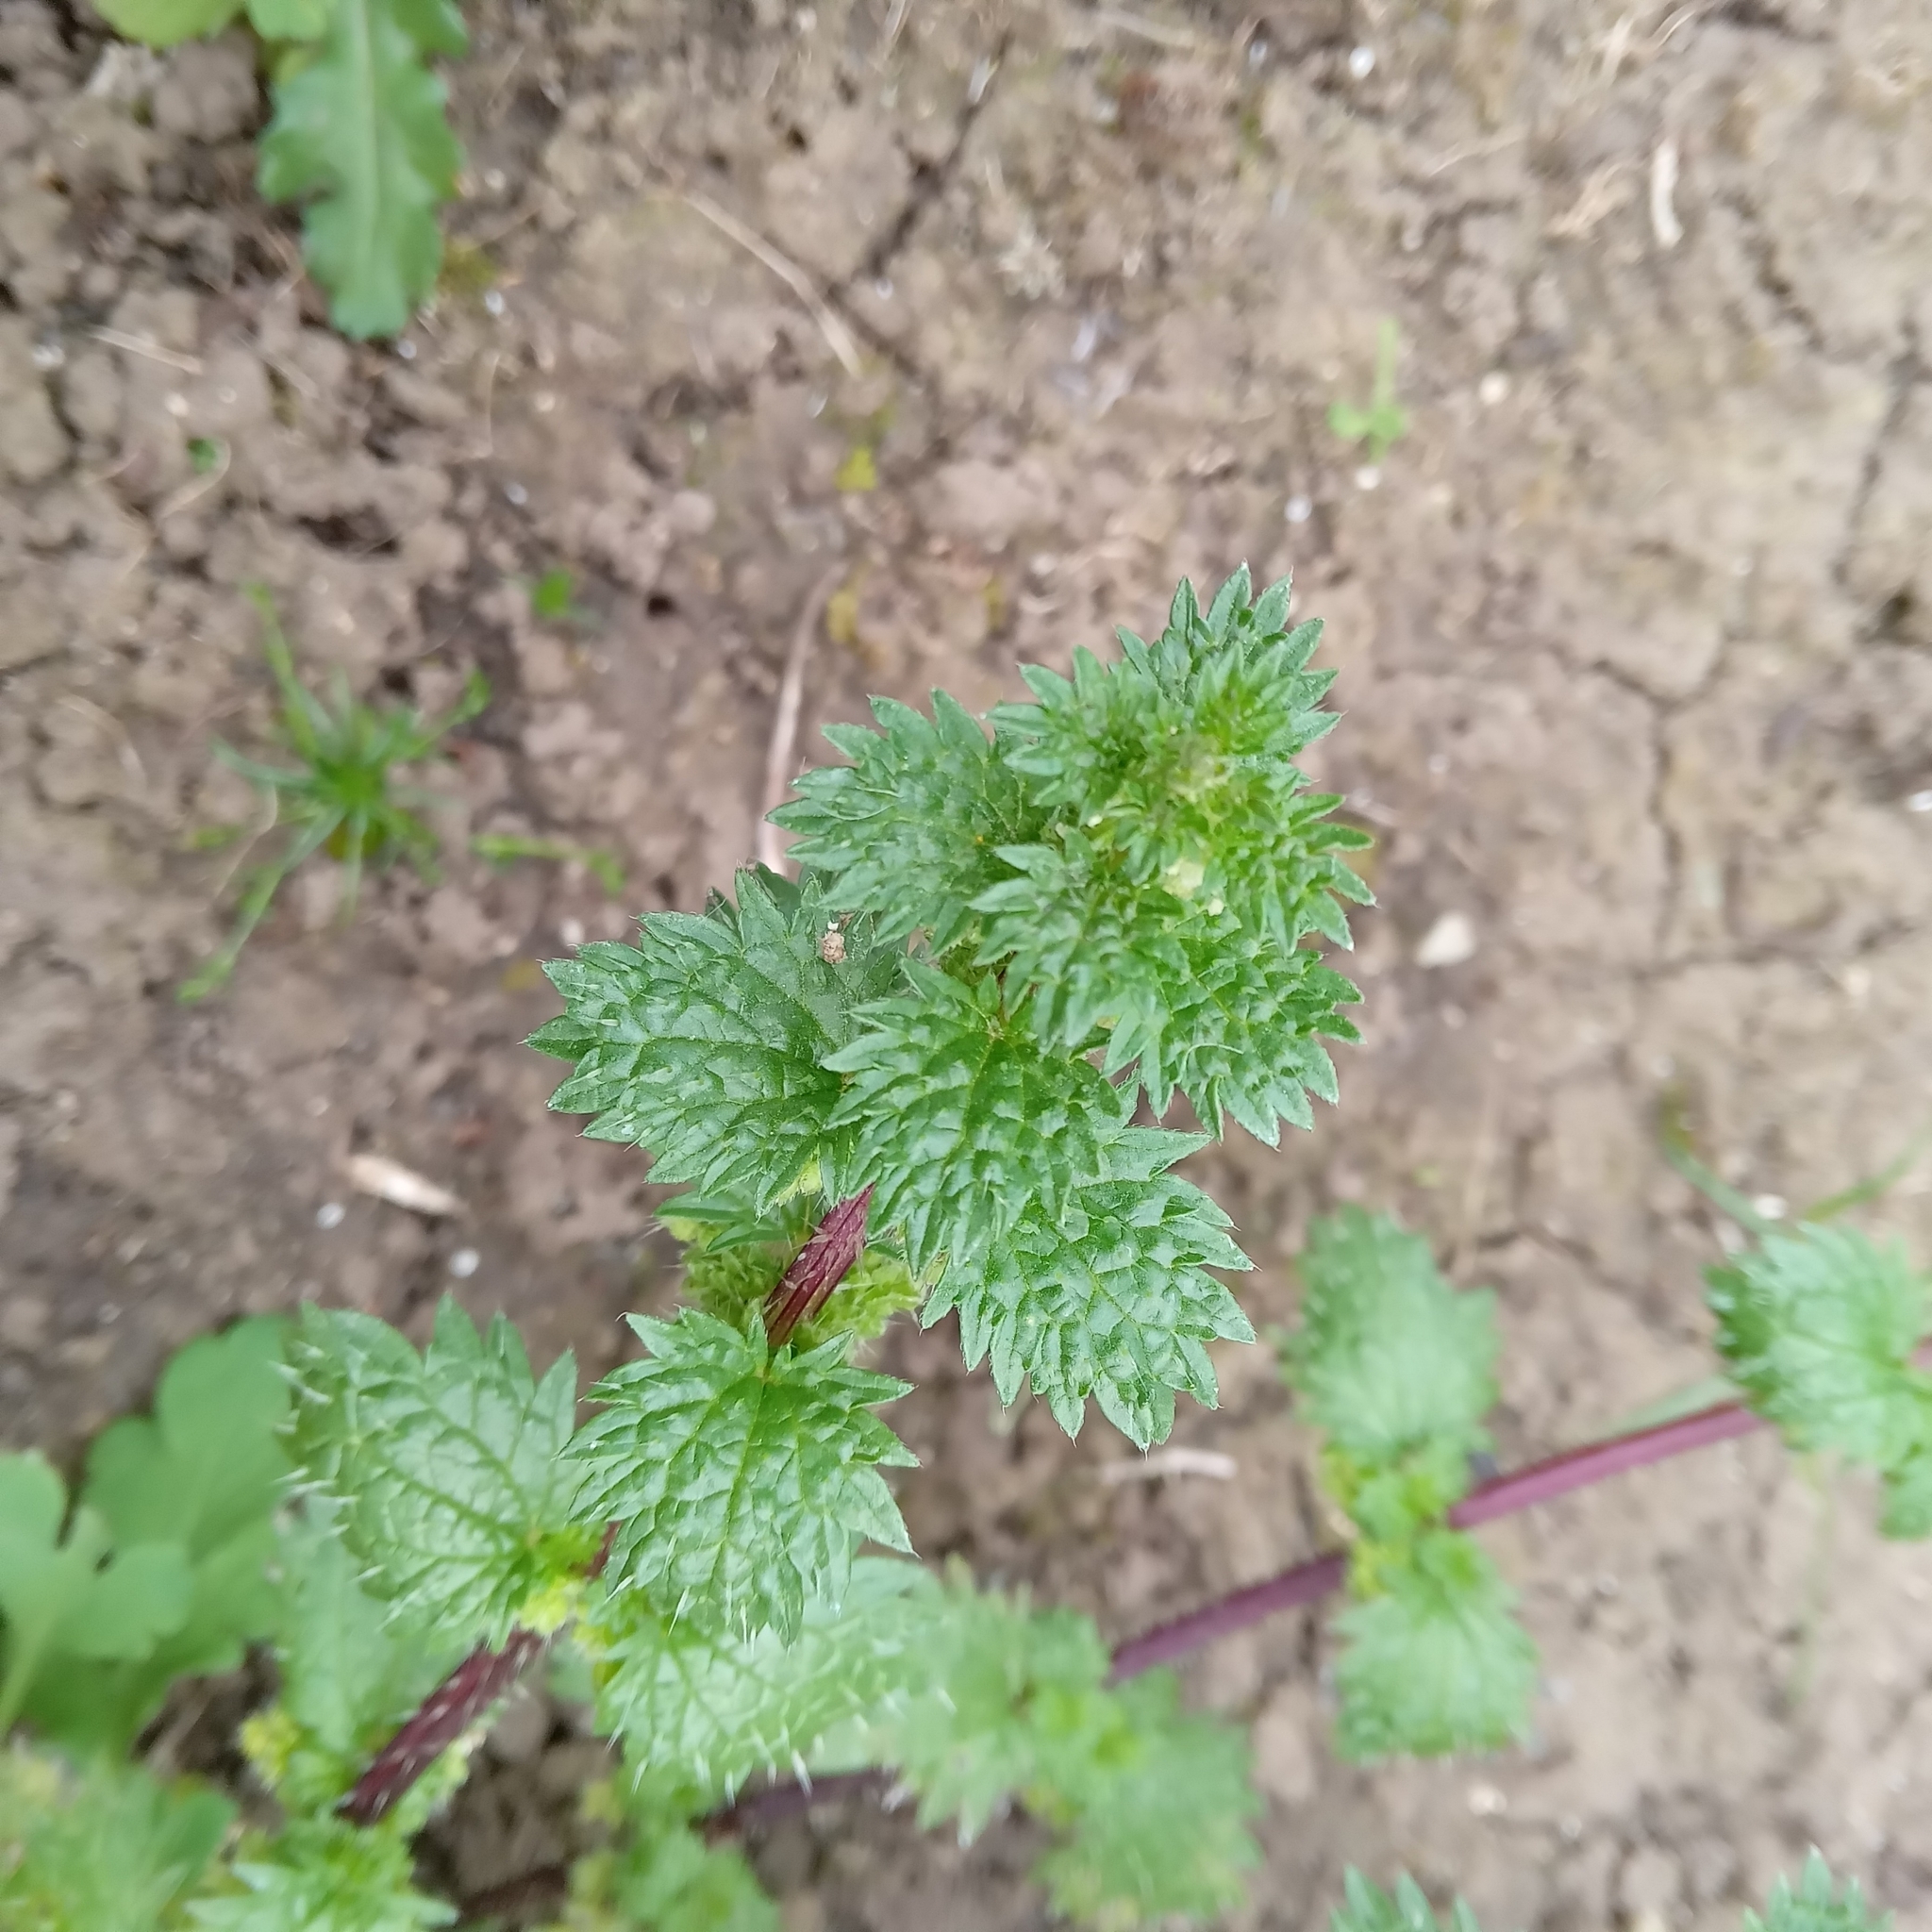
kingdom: Plantae
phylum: Tracheophyta
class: Magnoliopsida
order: Rosales
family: Urticaceae
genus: Urtica
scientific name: Urtica urens
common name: Dwarf nettle
